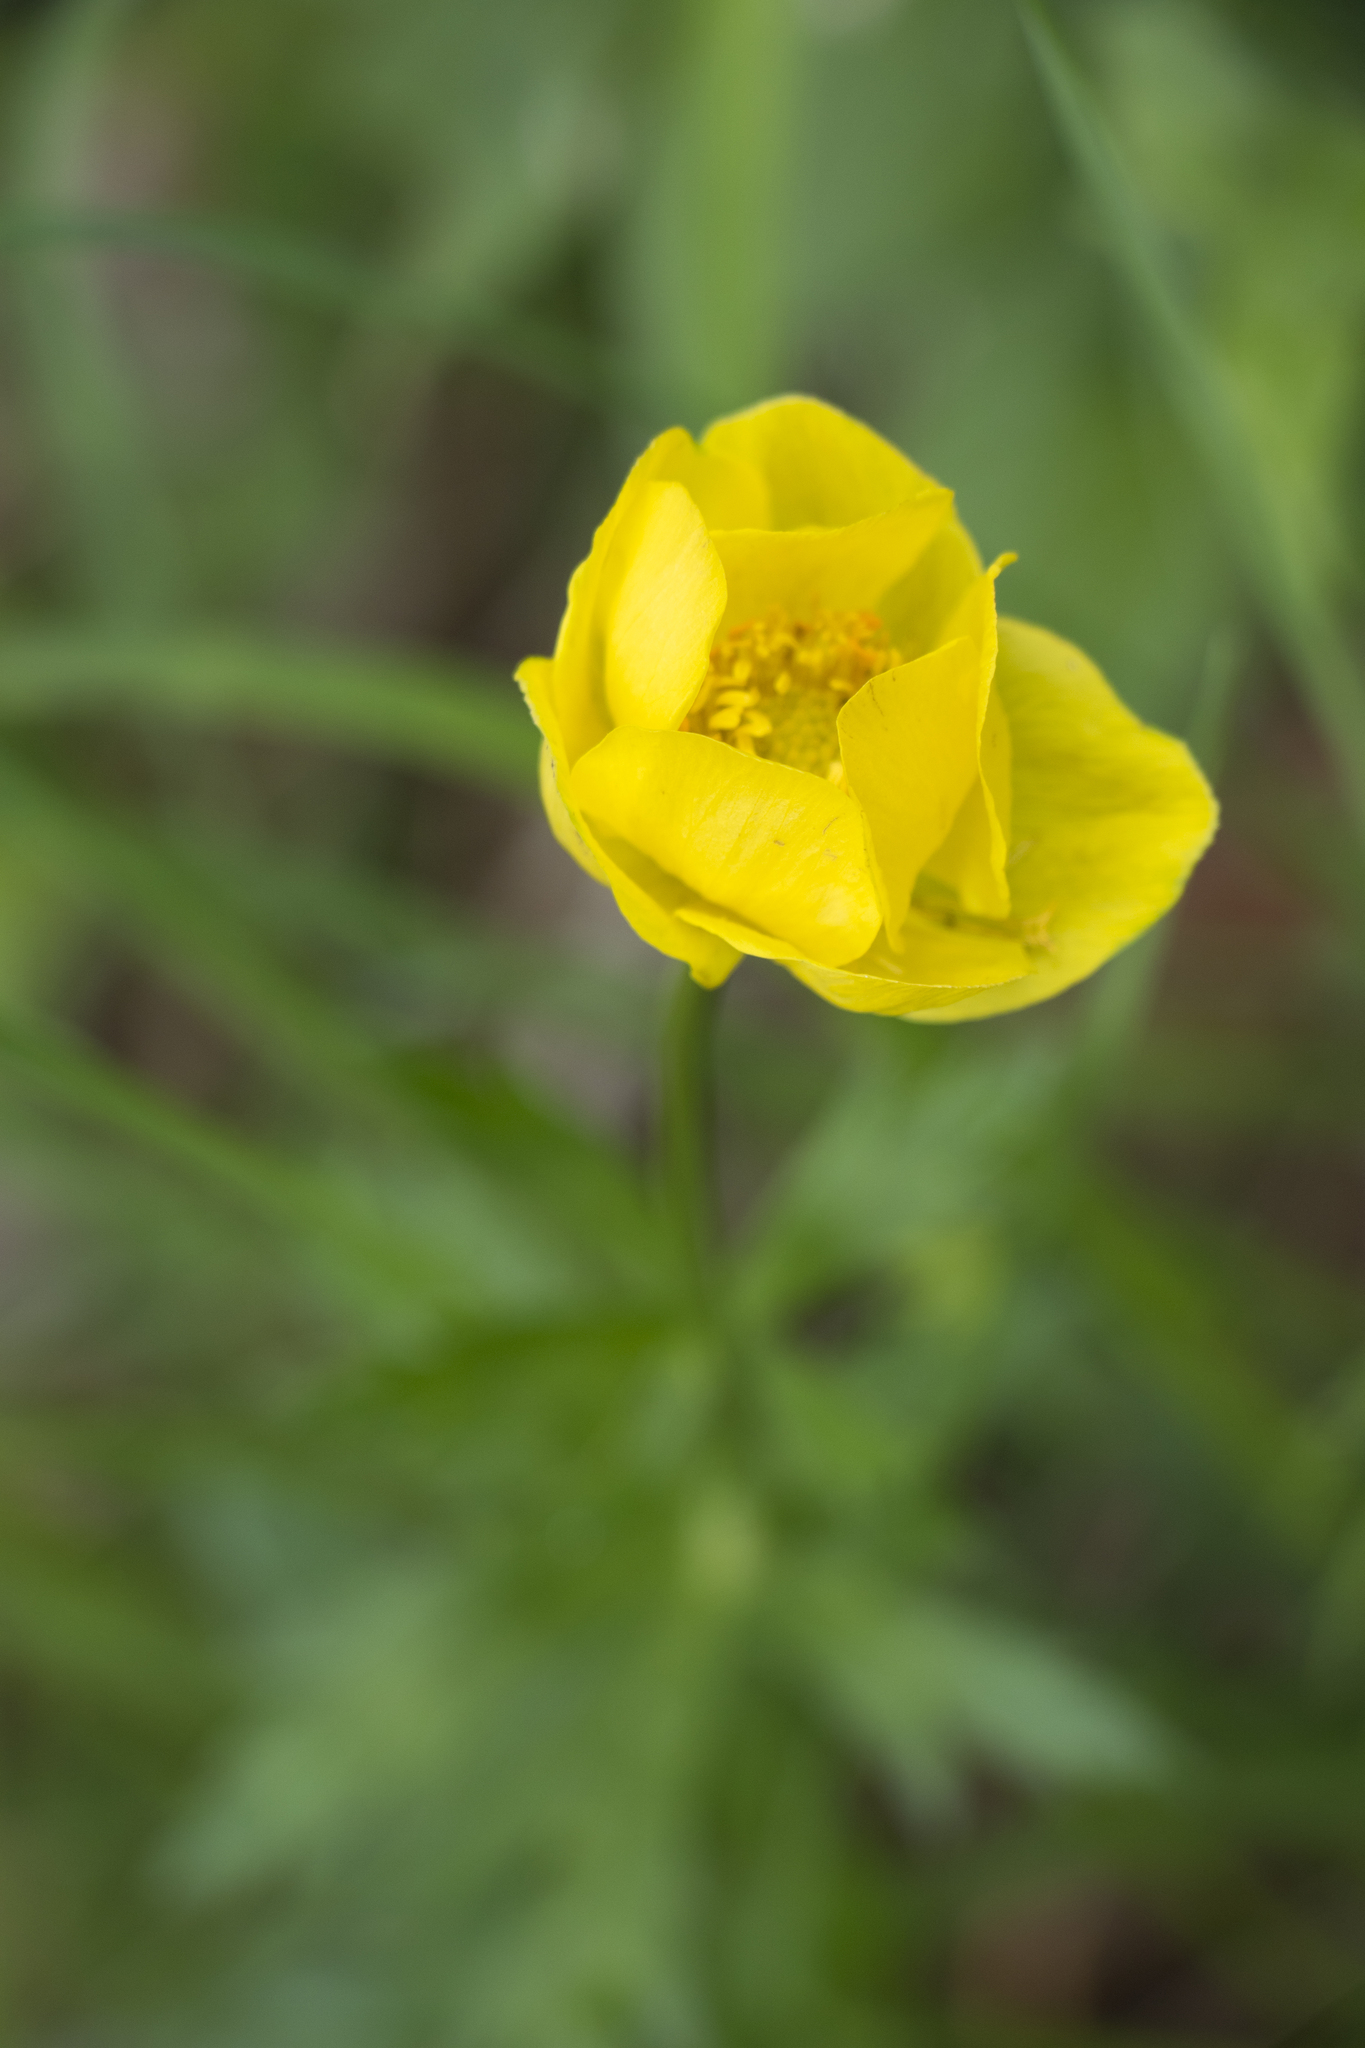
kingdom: Plantae
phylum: Tracheophyta
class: Magnoliopsida
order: Ranunculales
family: Ranunculaceae
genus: Trollius
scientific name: Trollius europaeus
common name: European globeflower
